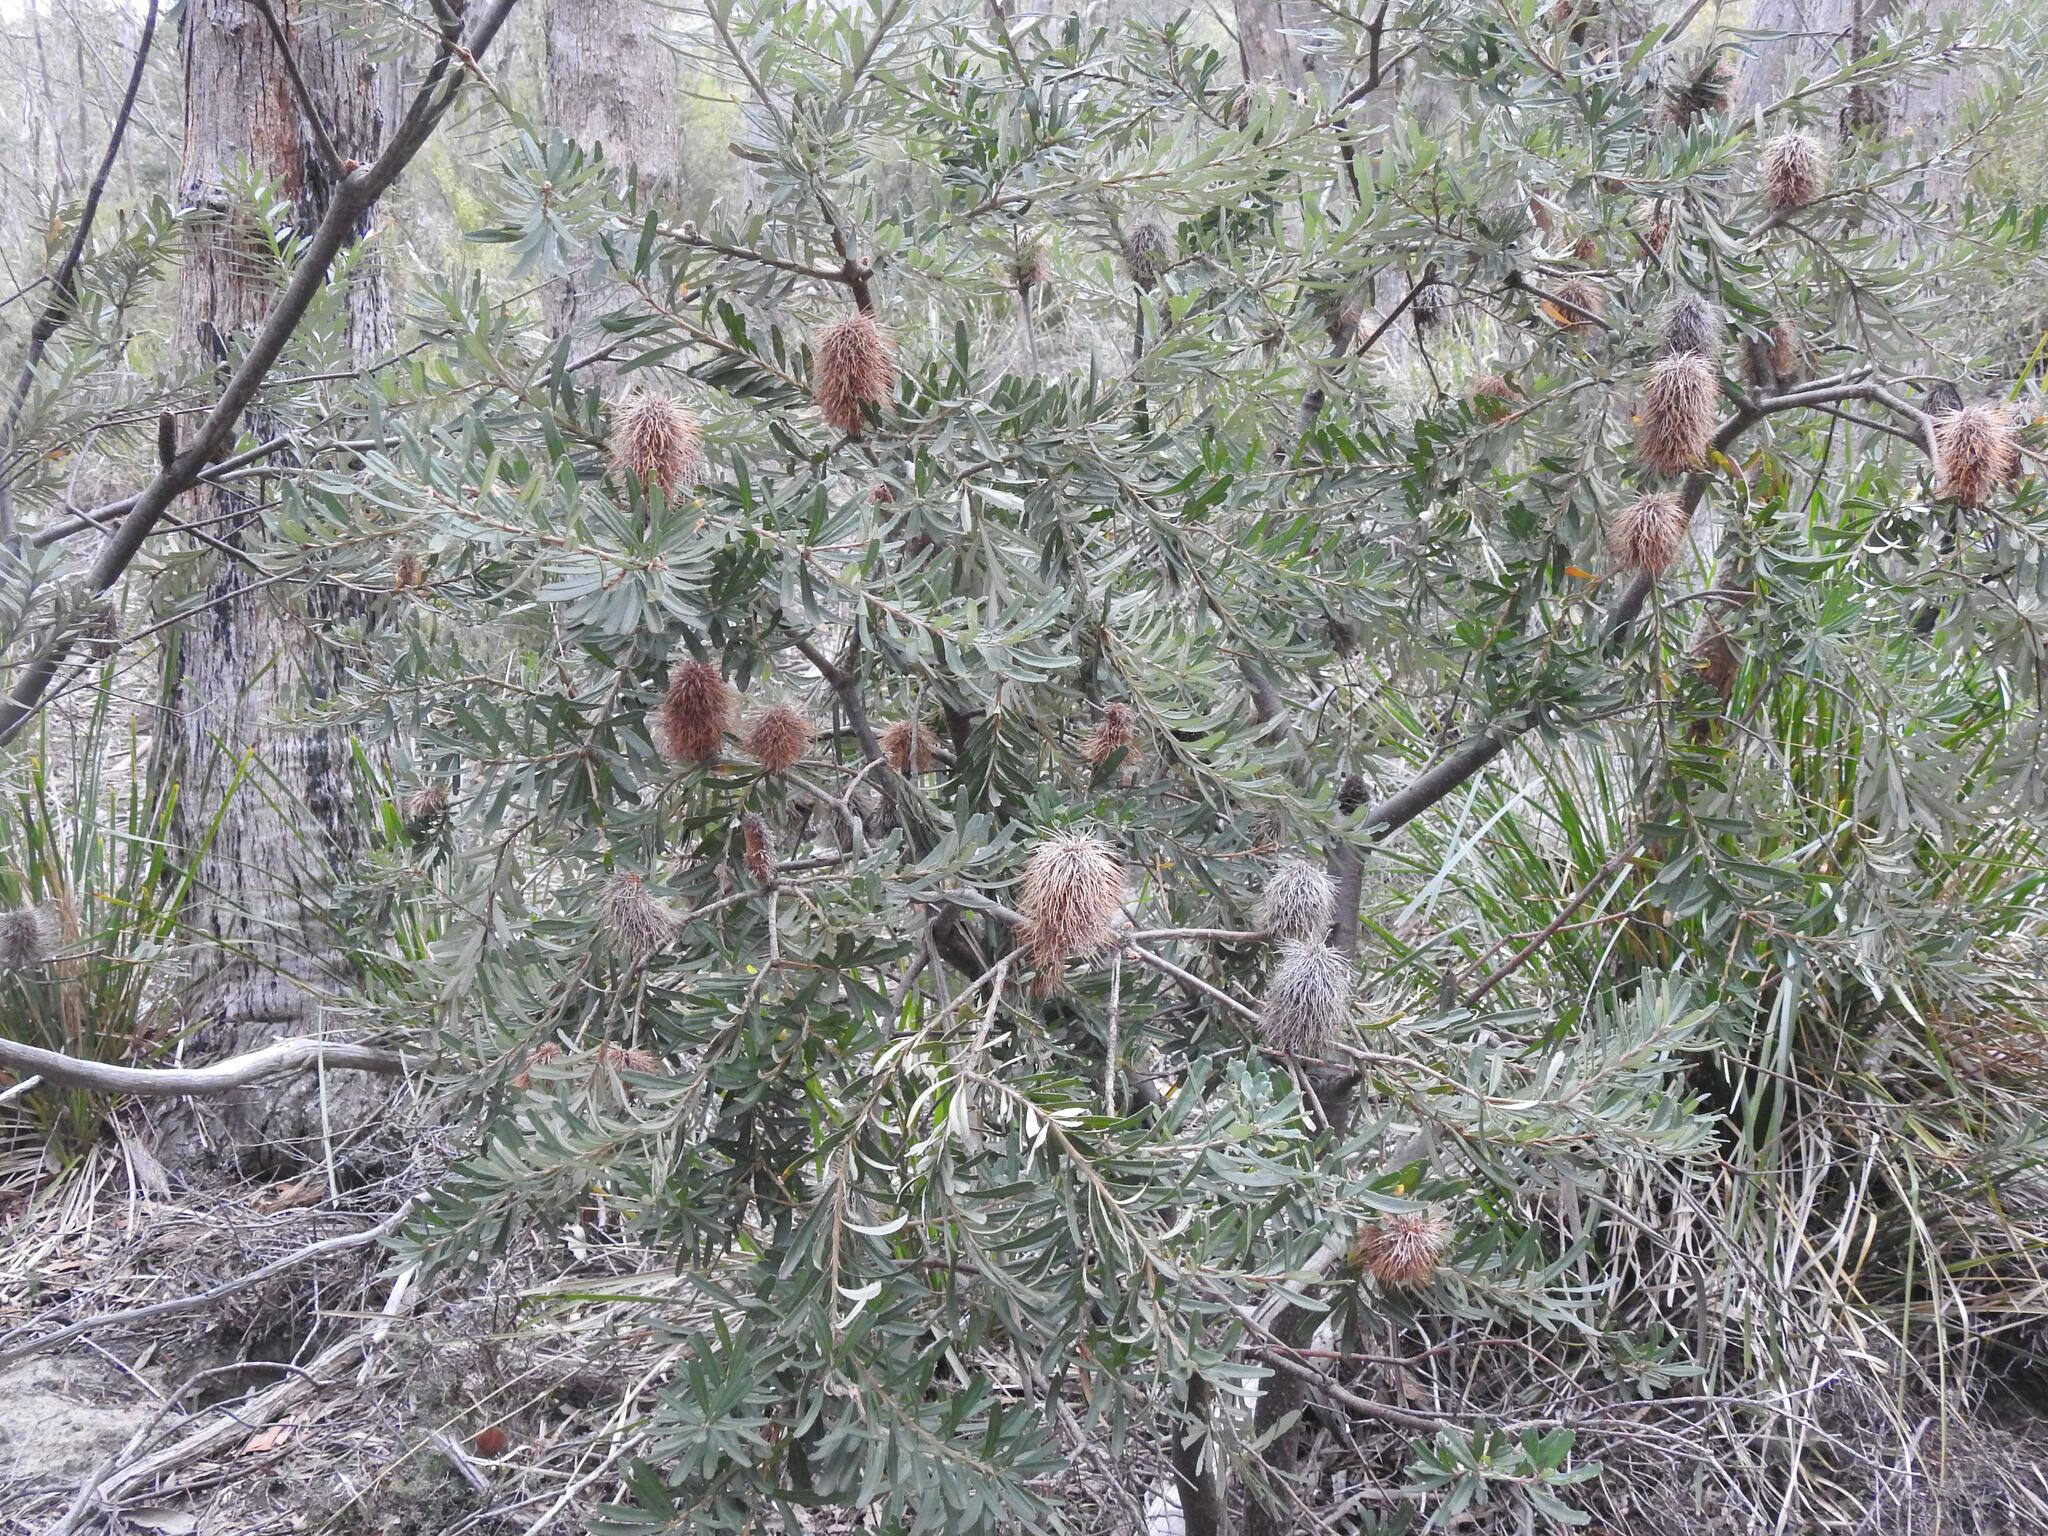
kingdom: Plantae
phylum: Tracheophyta
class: Magnoliopsida
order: Proteales
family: Proteaceae
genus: Banksia
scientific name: Banksia marginata
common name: Silver banksia
